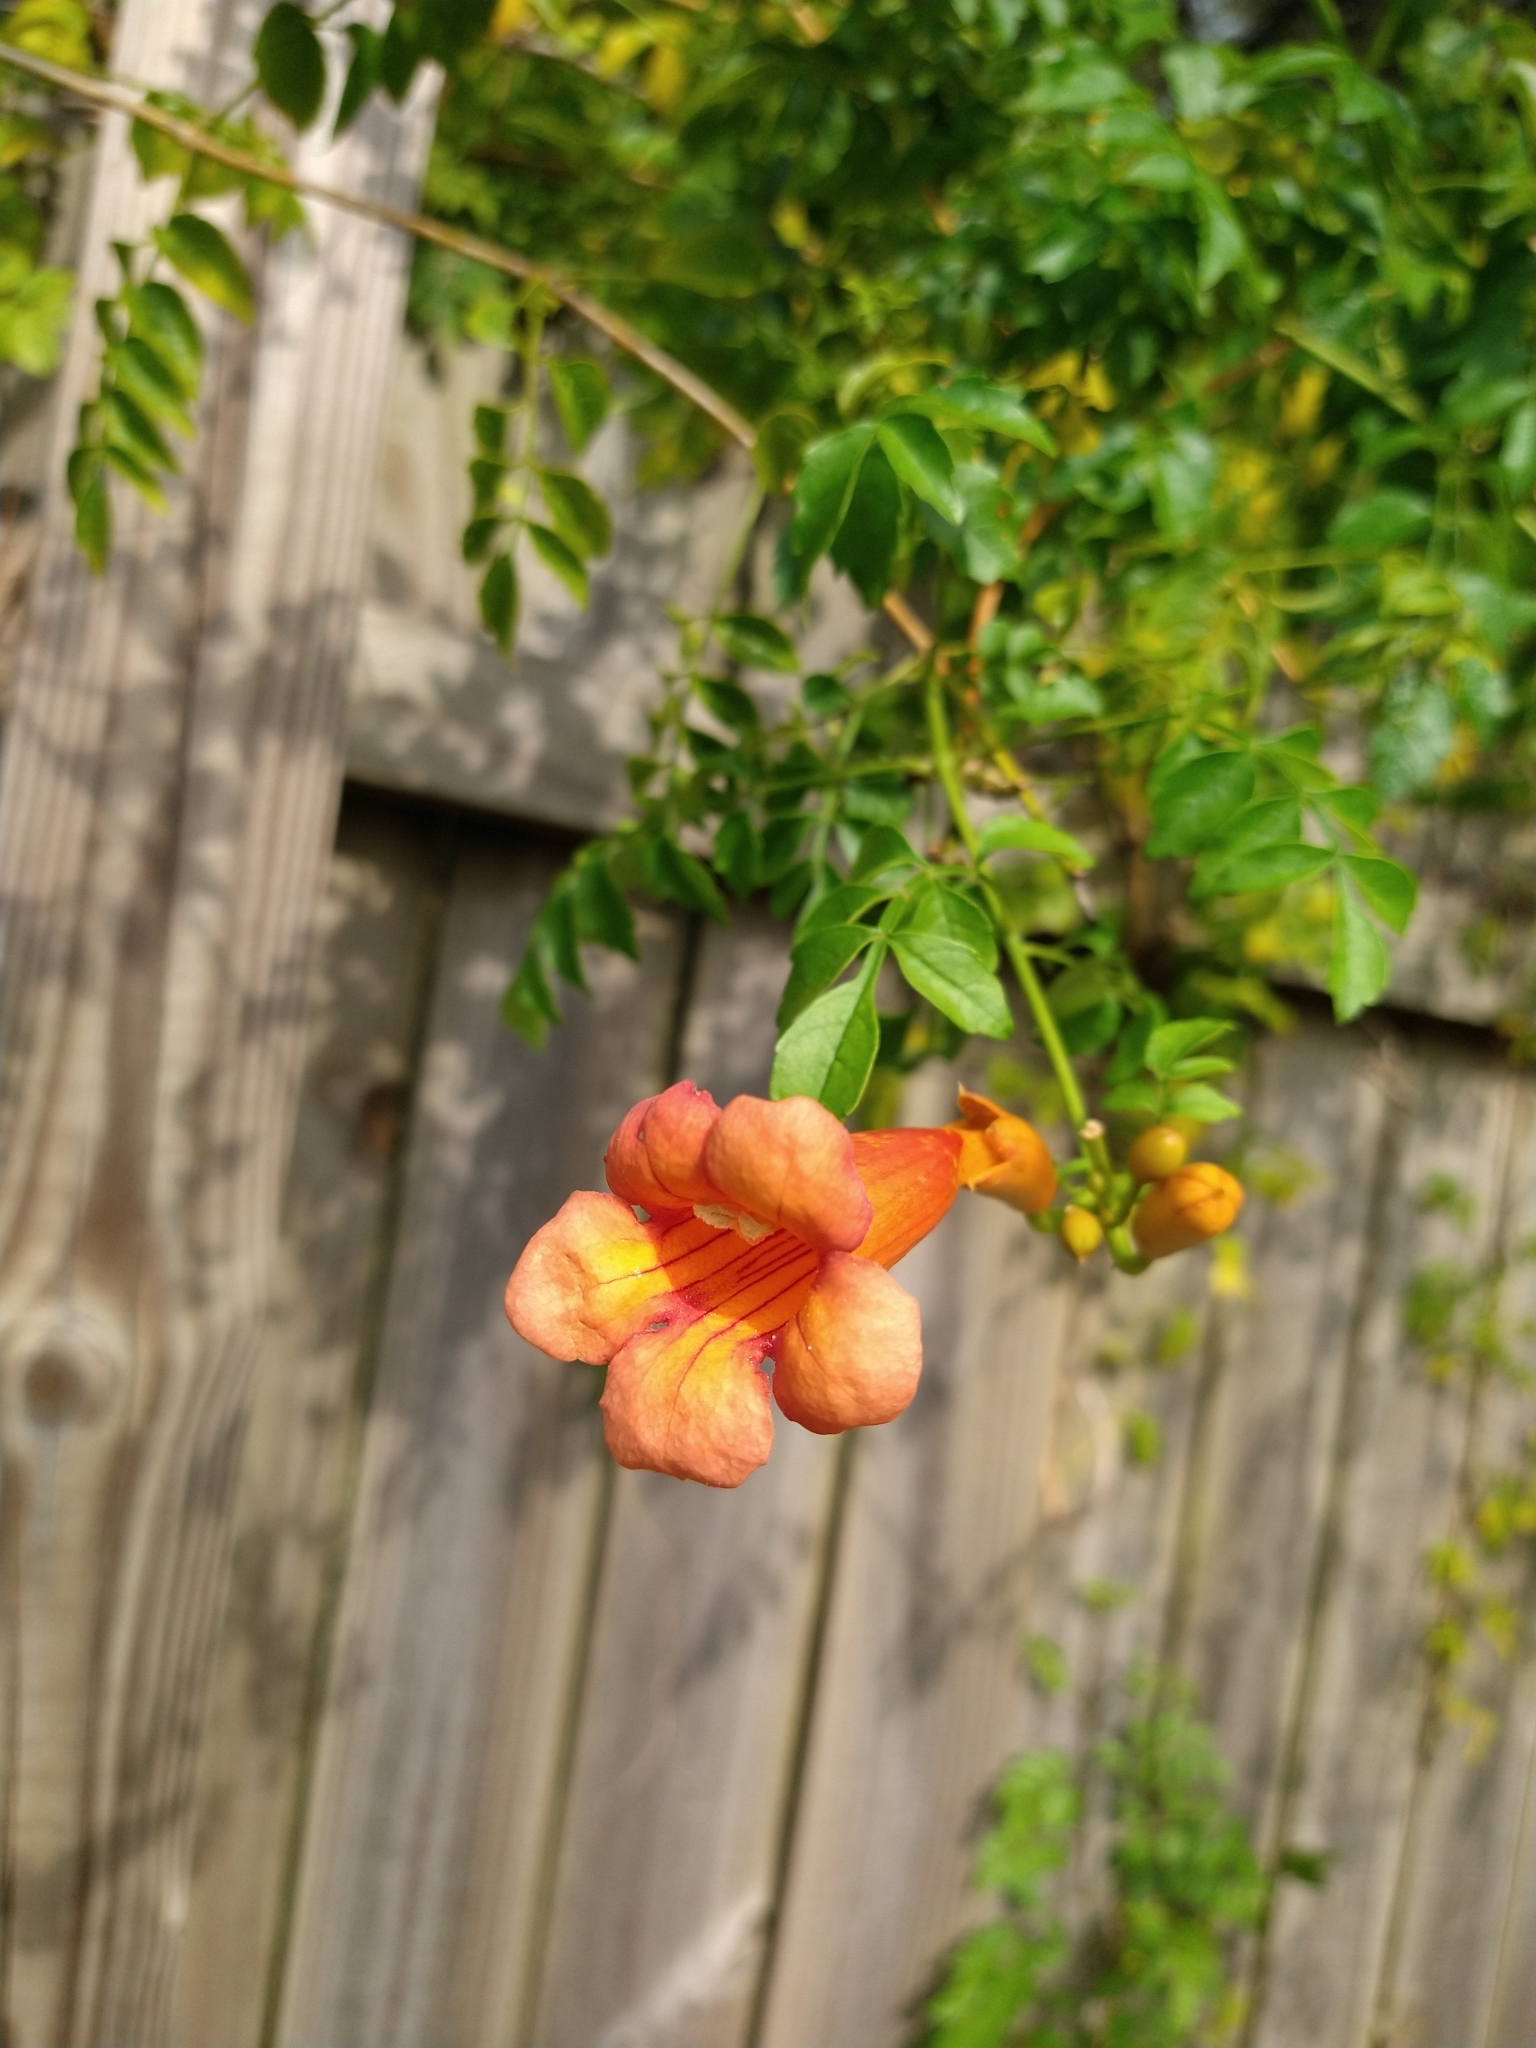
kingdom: Plantae
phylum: Tracheophyta
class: Magnoliopsida
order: Lamiales
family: Bignoniaceae
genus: Campsis
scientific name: Campsis radicans
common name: Trumpet-creeper
